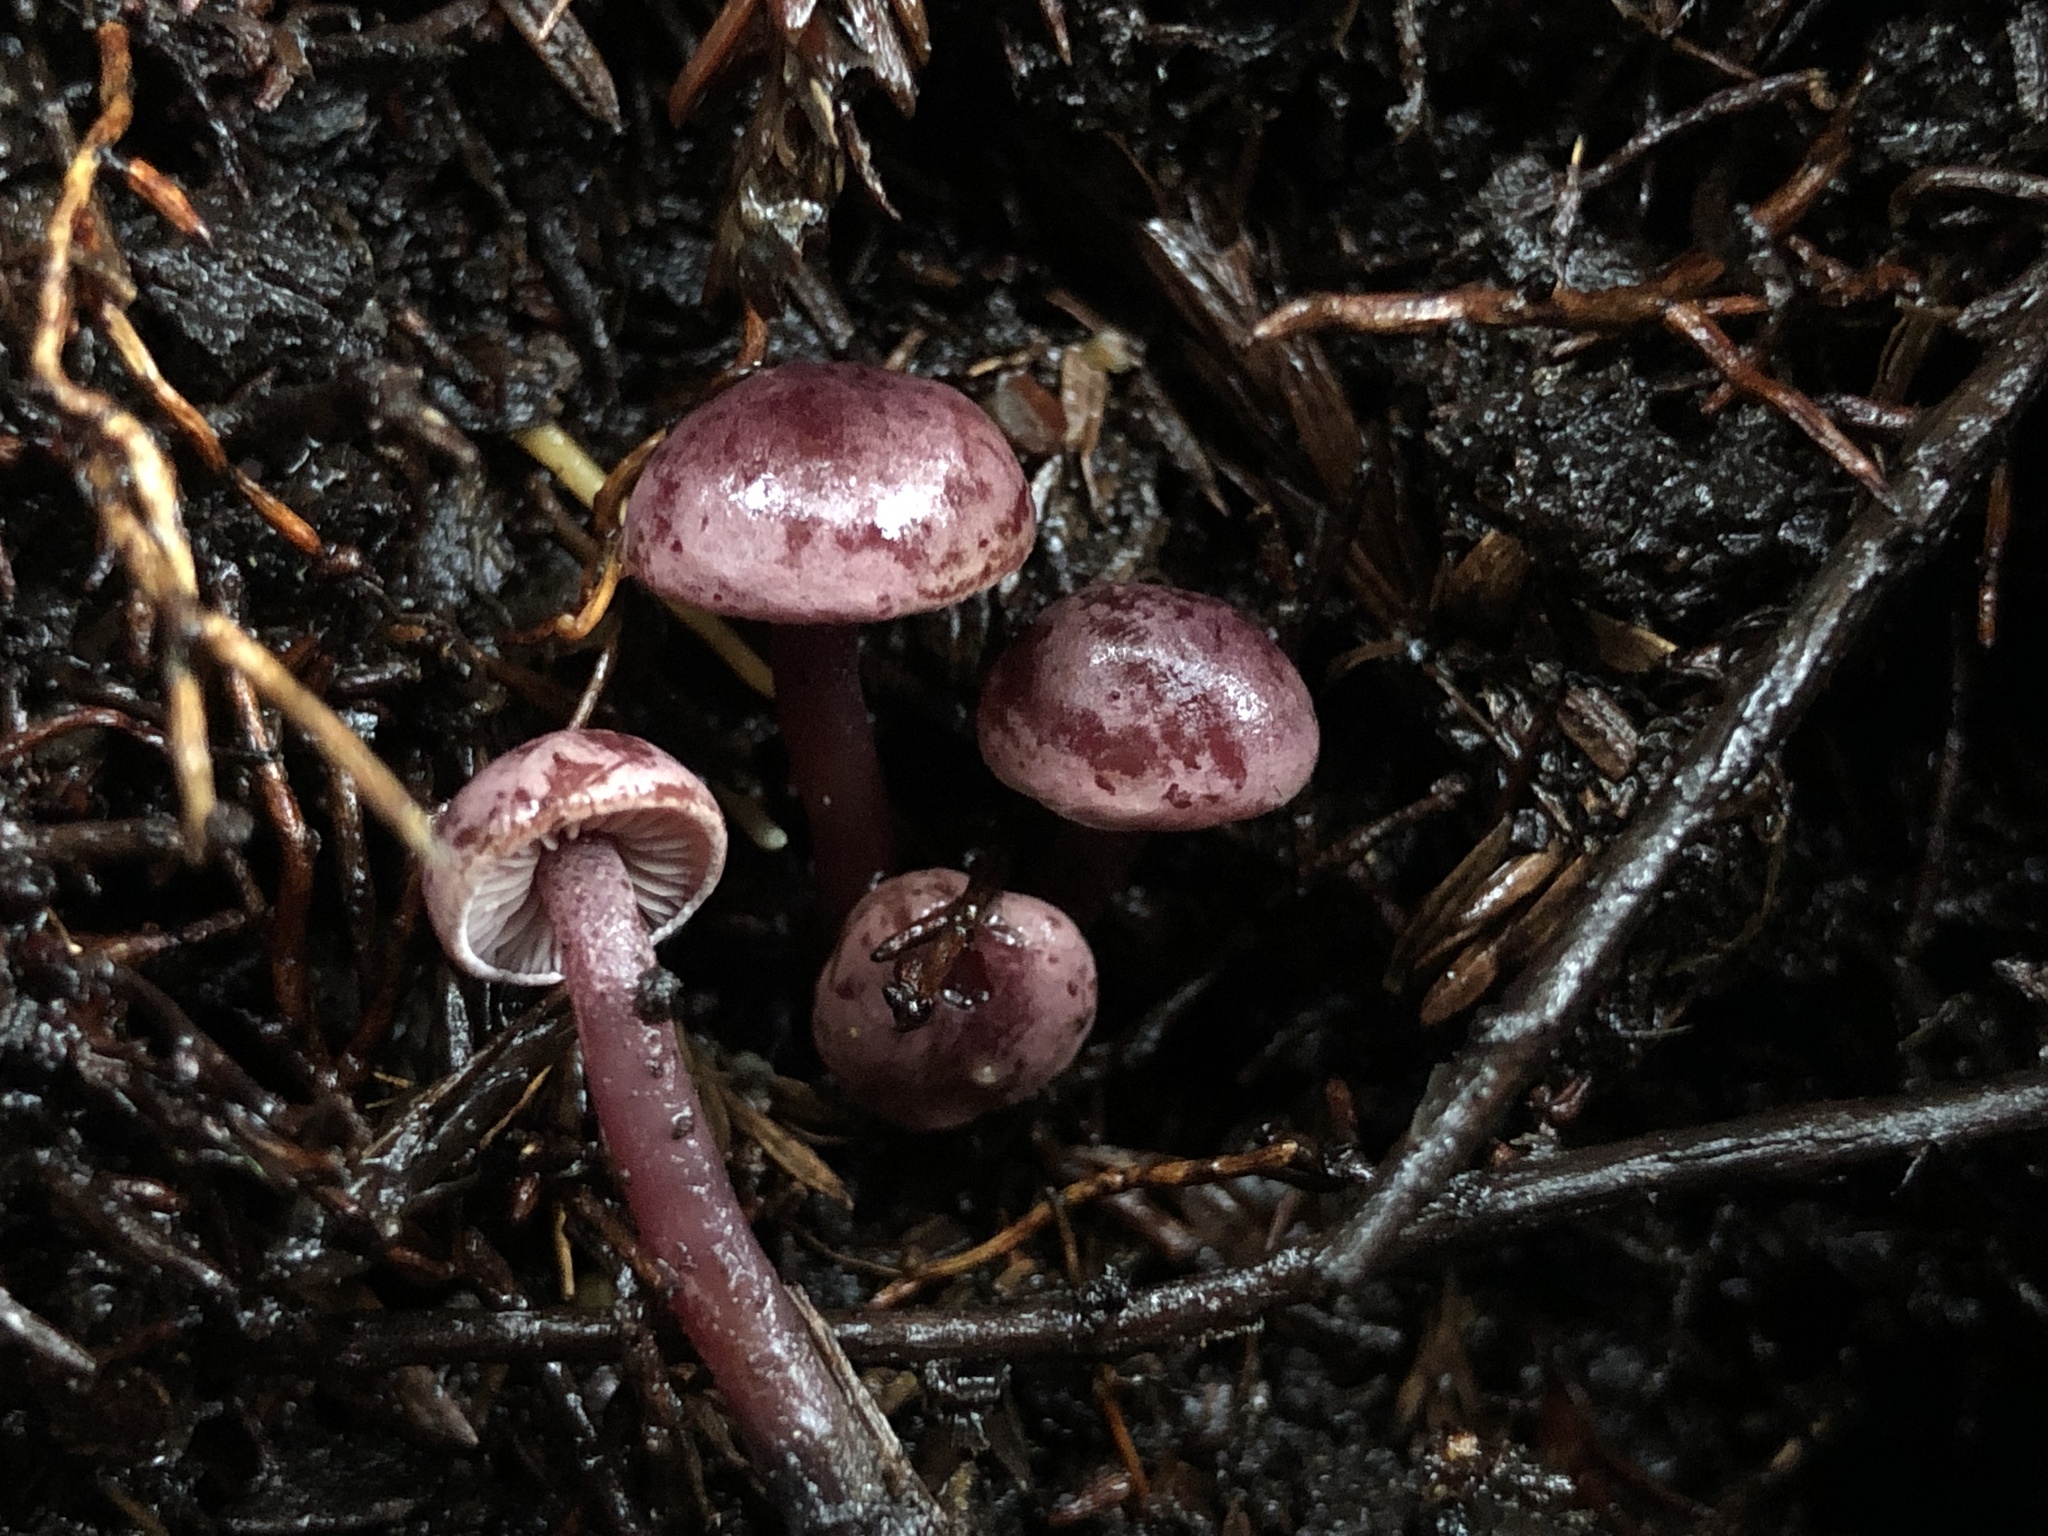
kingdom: Fungi
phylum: Basidiomycota
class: Agaricomycetes
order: Agaricales
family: Tricholomataceae
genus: Pseudobaeospora
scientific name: Pseudobaeospora deckeri
